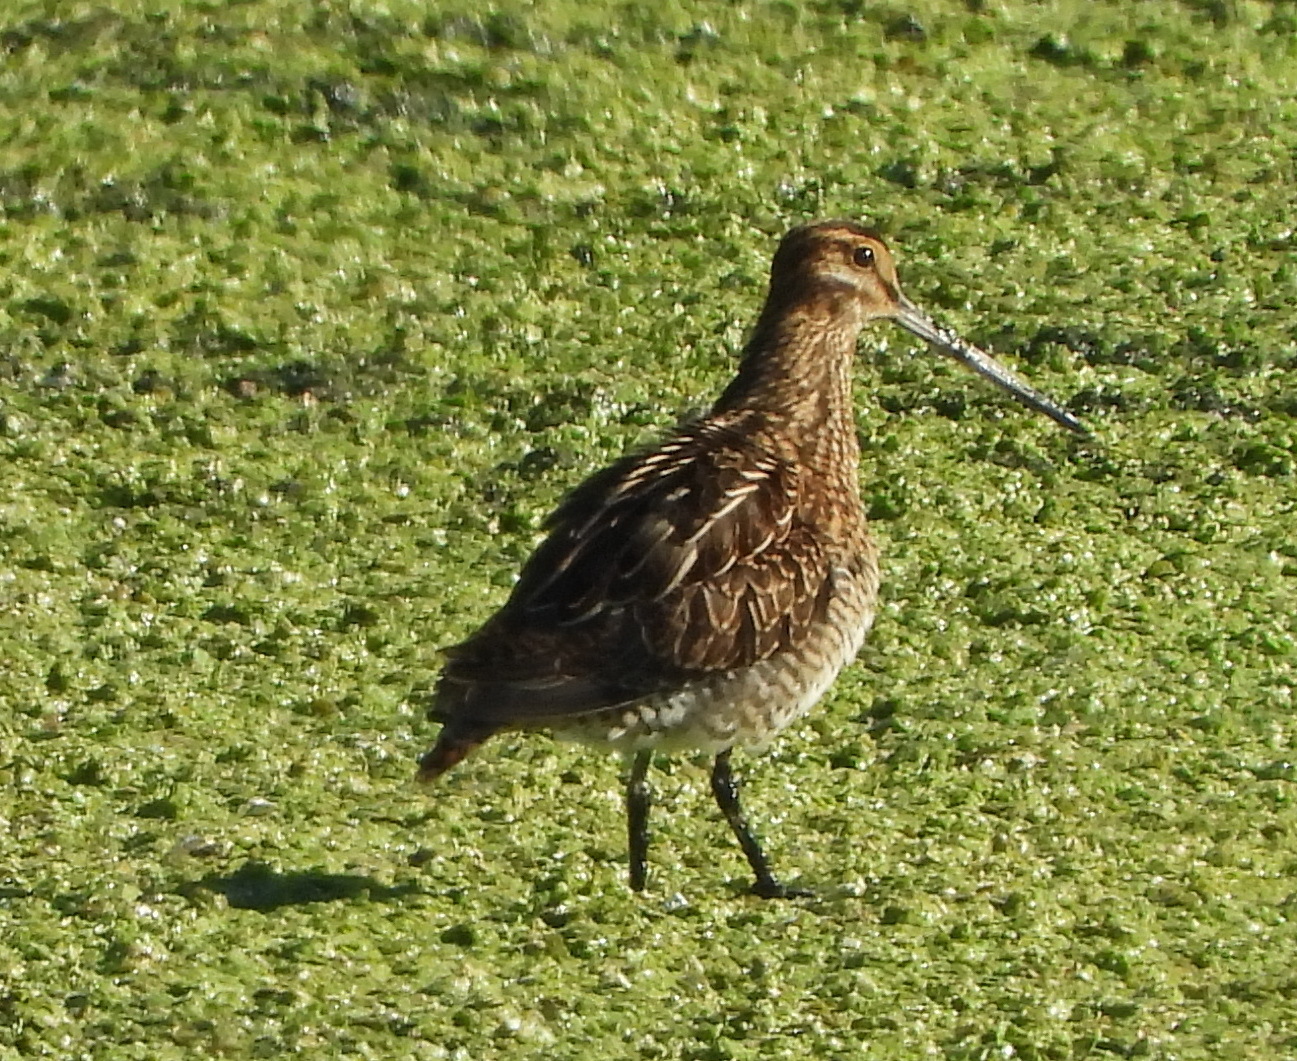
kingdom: Animalia
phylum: Chordata
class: Aves
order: Charadriiformes
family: Scolopacidae
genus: Gallinago
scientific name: Gallinago gallinago
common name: Common snipe
